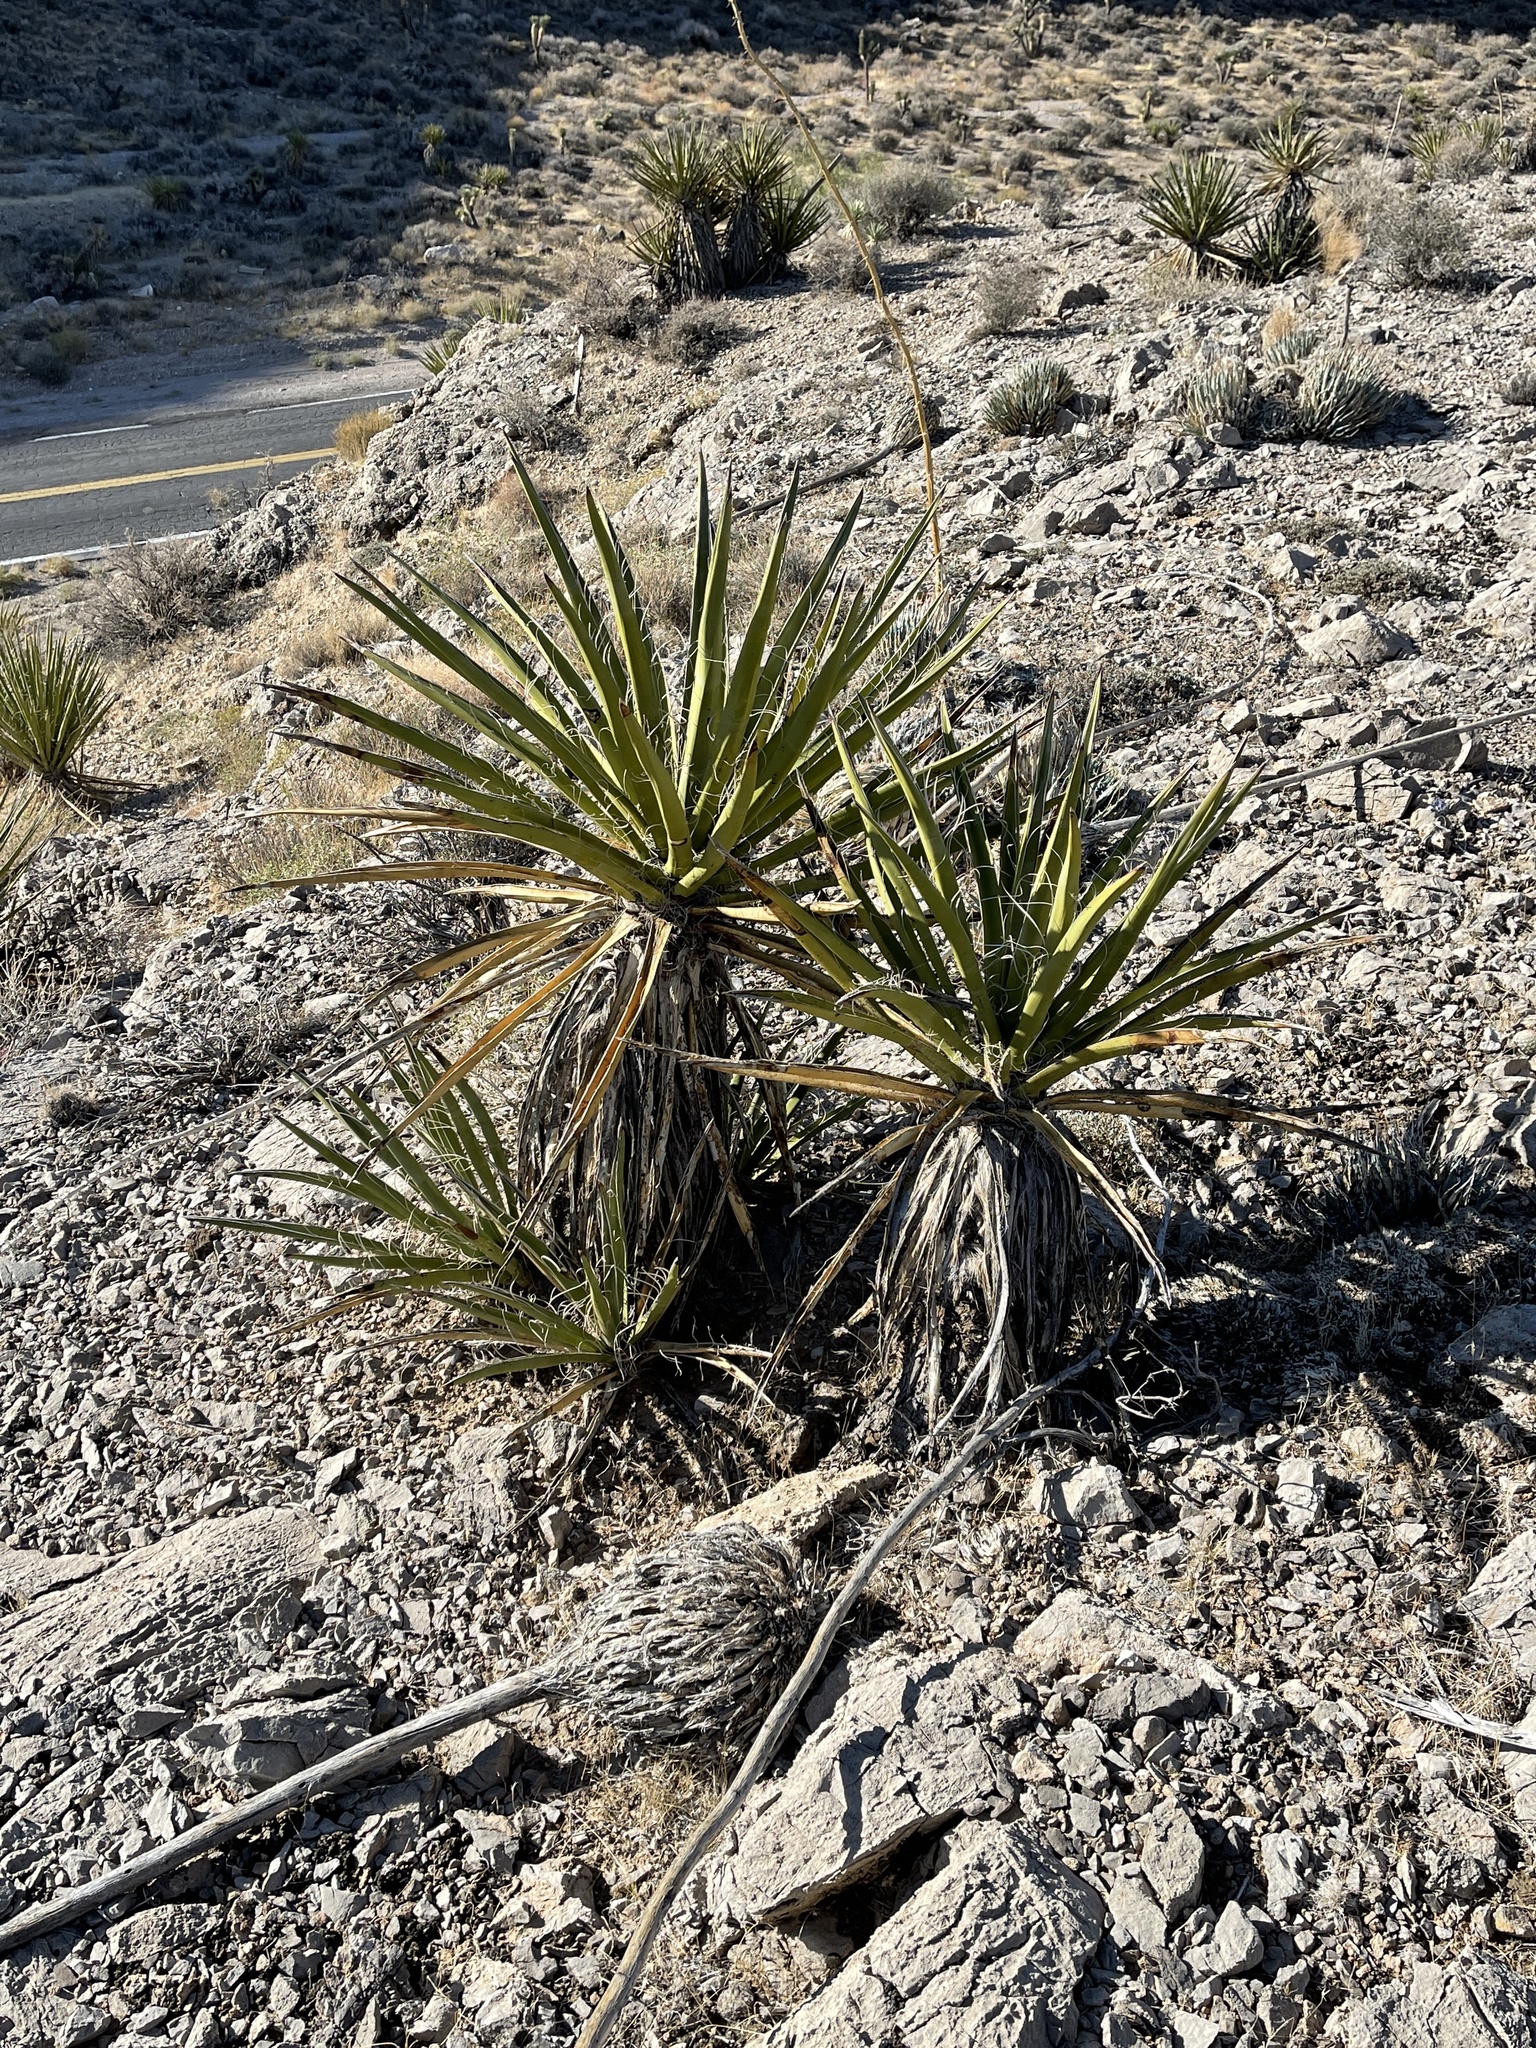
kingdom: Plantae
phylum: Tracheophyta
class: Liliopsida
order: Asparagales
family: Asparagaceae
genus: Yucca
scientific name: Yucca schidigera
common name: Mojave yucca
